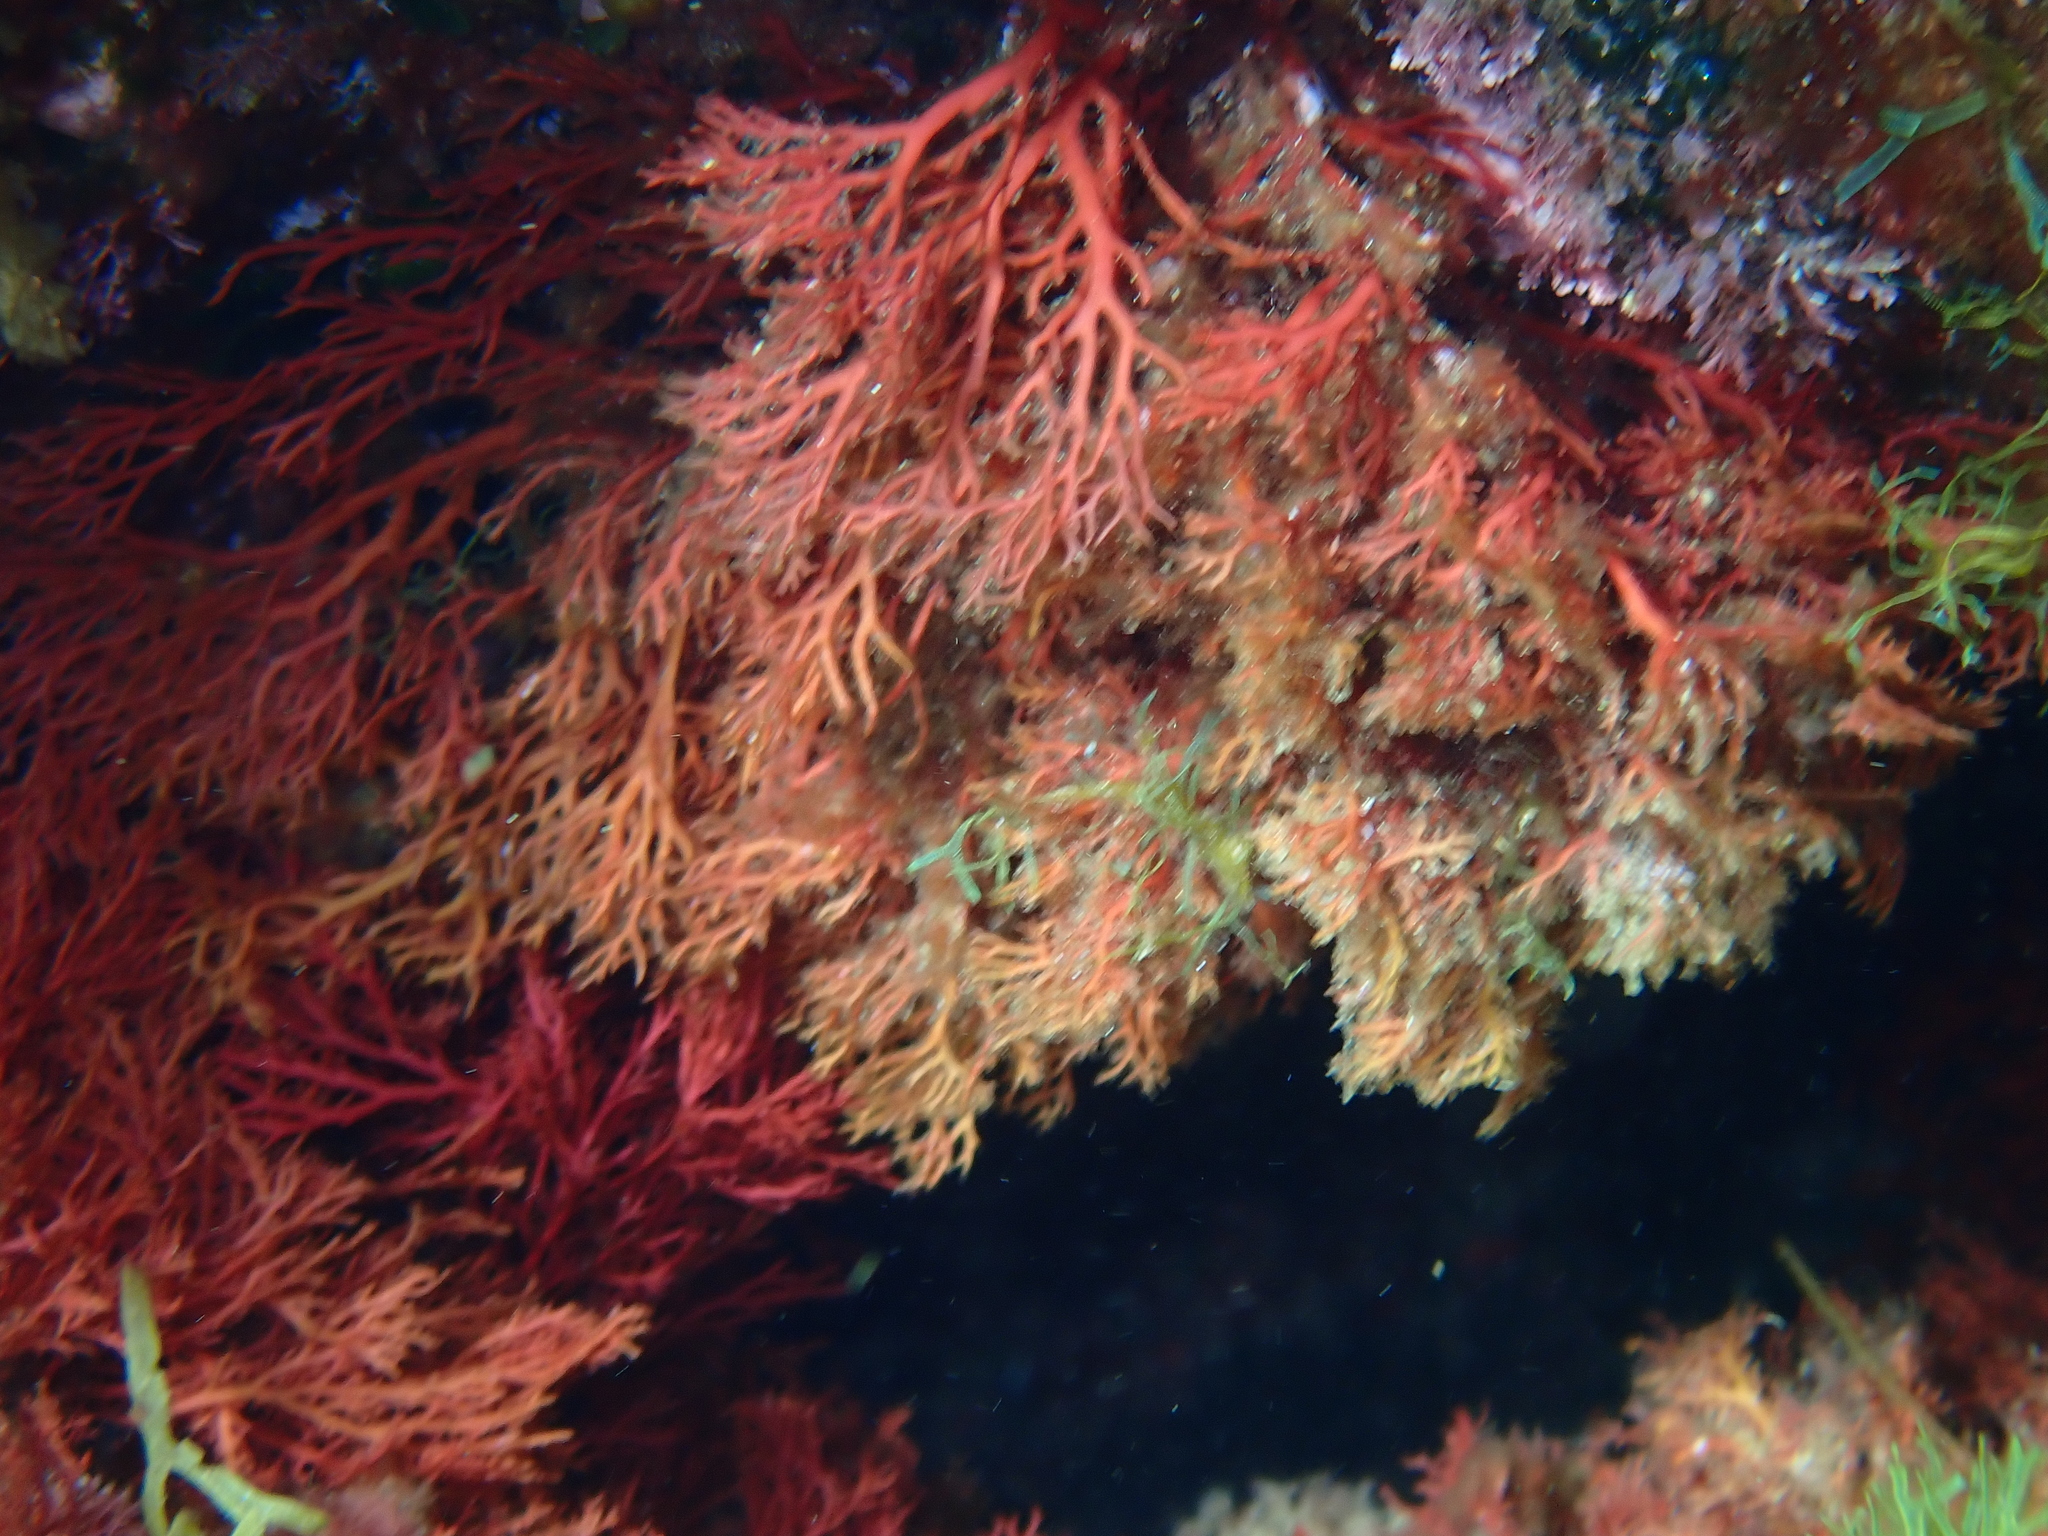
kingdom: Plantae
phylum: Rhodophyta
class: Florideophyceae
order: Gigartinales
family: Sphaerococcaceae
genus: Sphaerococcus
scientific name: Sphaerococcus coronopifolius
